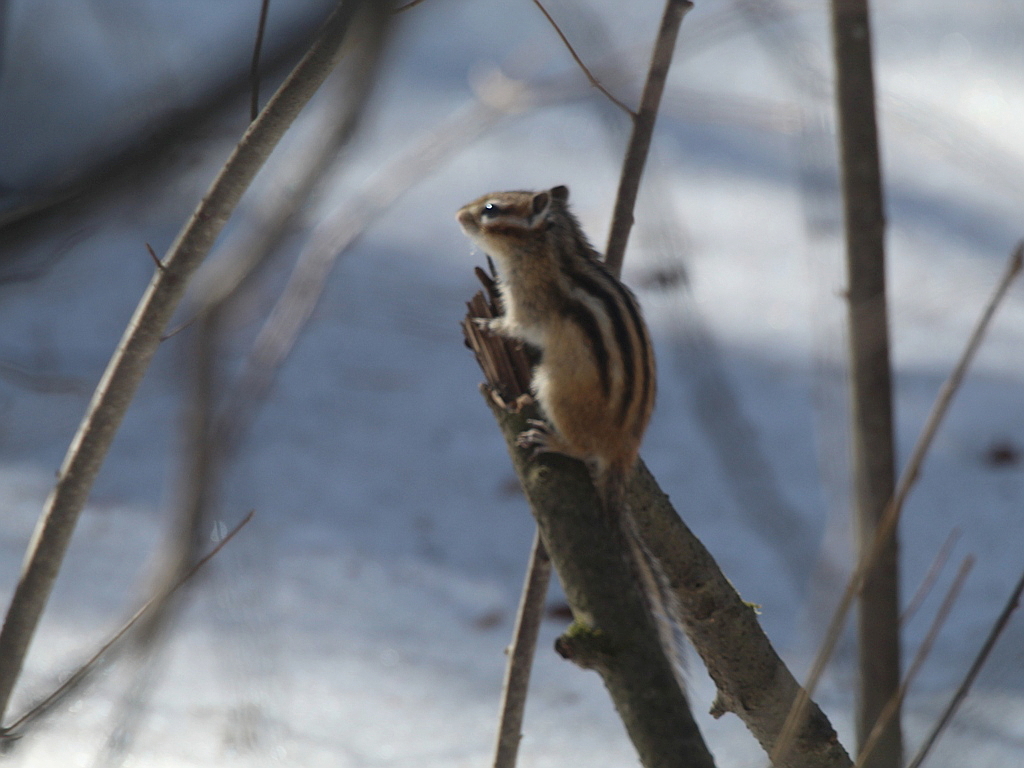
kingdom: Animalia
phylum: Chordata
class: Mammalia
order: Rodentia
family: Sciuridae
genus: Tamias
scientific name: Tamias sibiricus
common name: Siberian chipmunk
